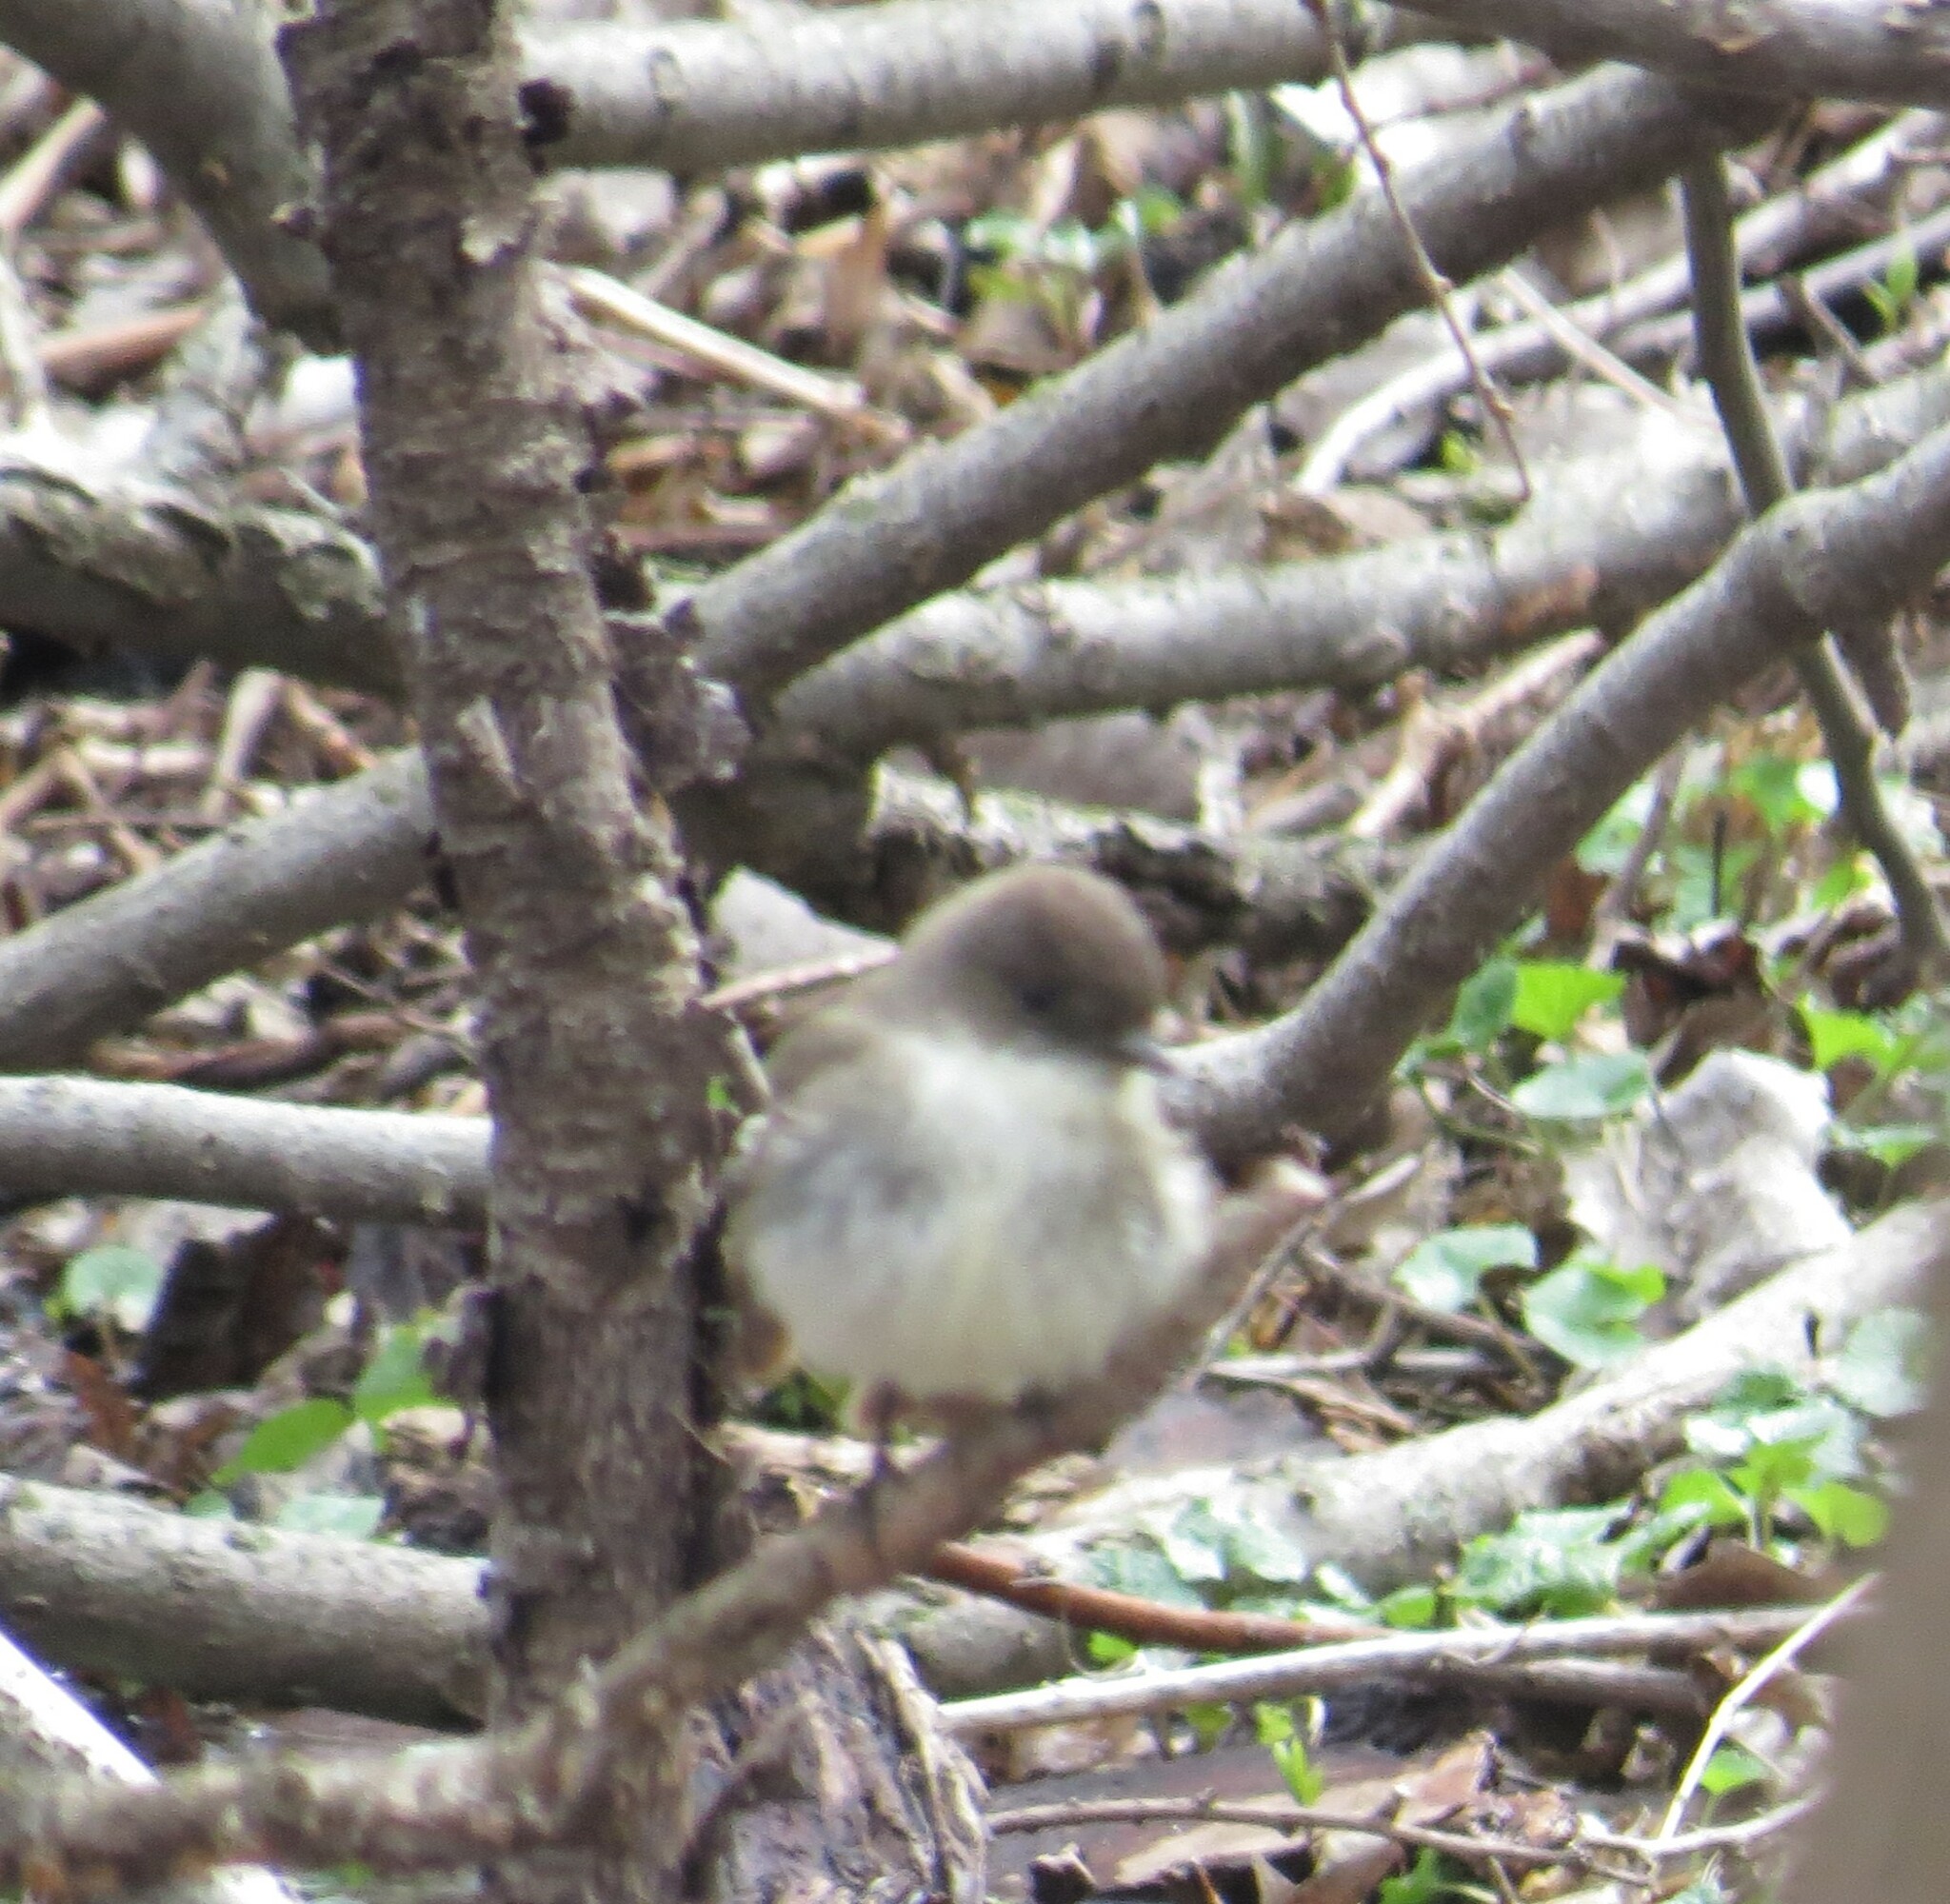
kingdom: Animalia
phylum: Chordata
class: Aves
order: Passeriformes
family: Tyrannidae
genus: Sayornis
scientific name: Sayornis phoebe
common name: Eastern phoebe
